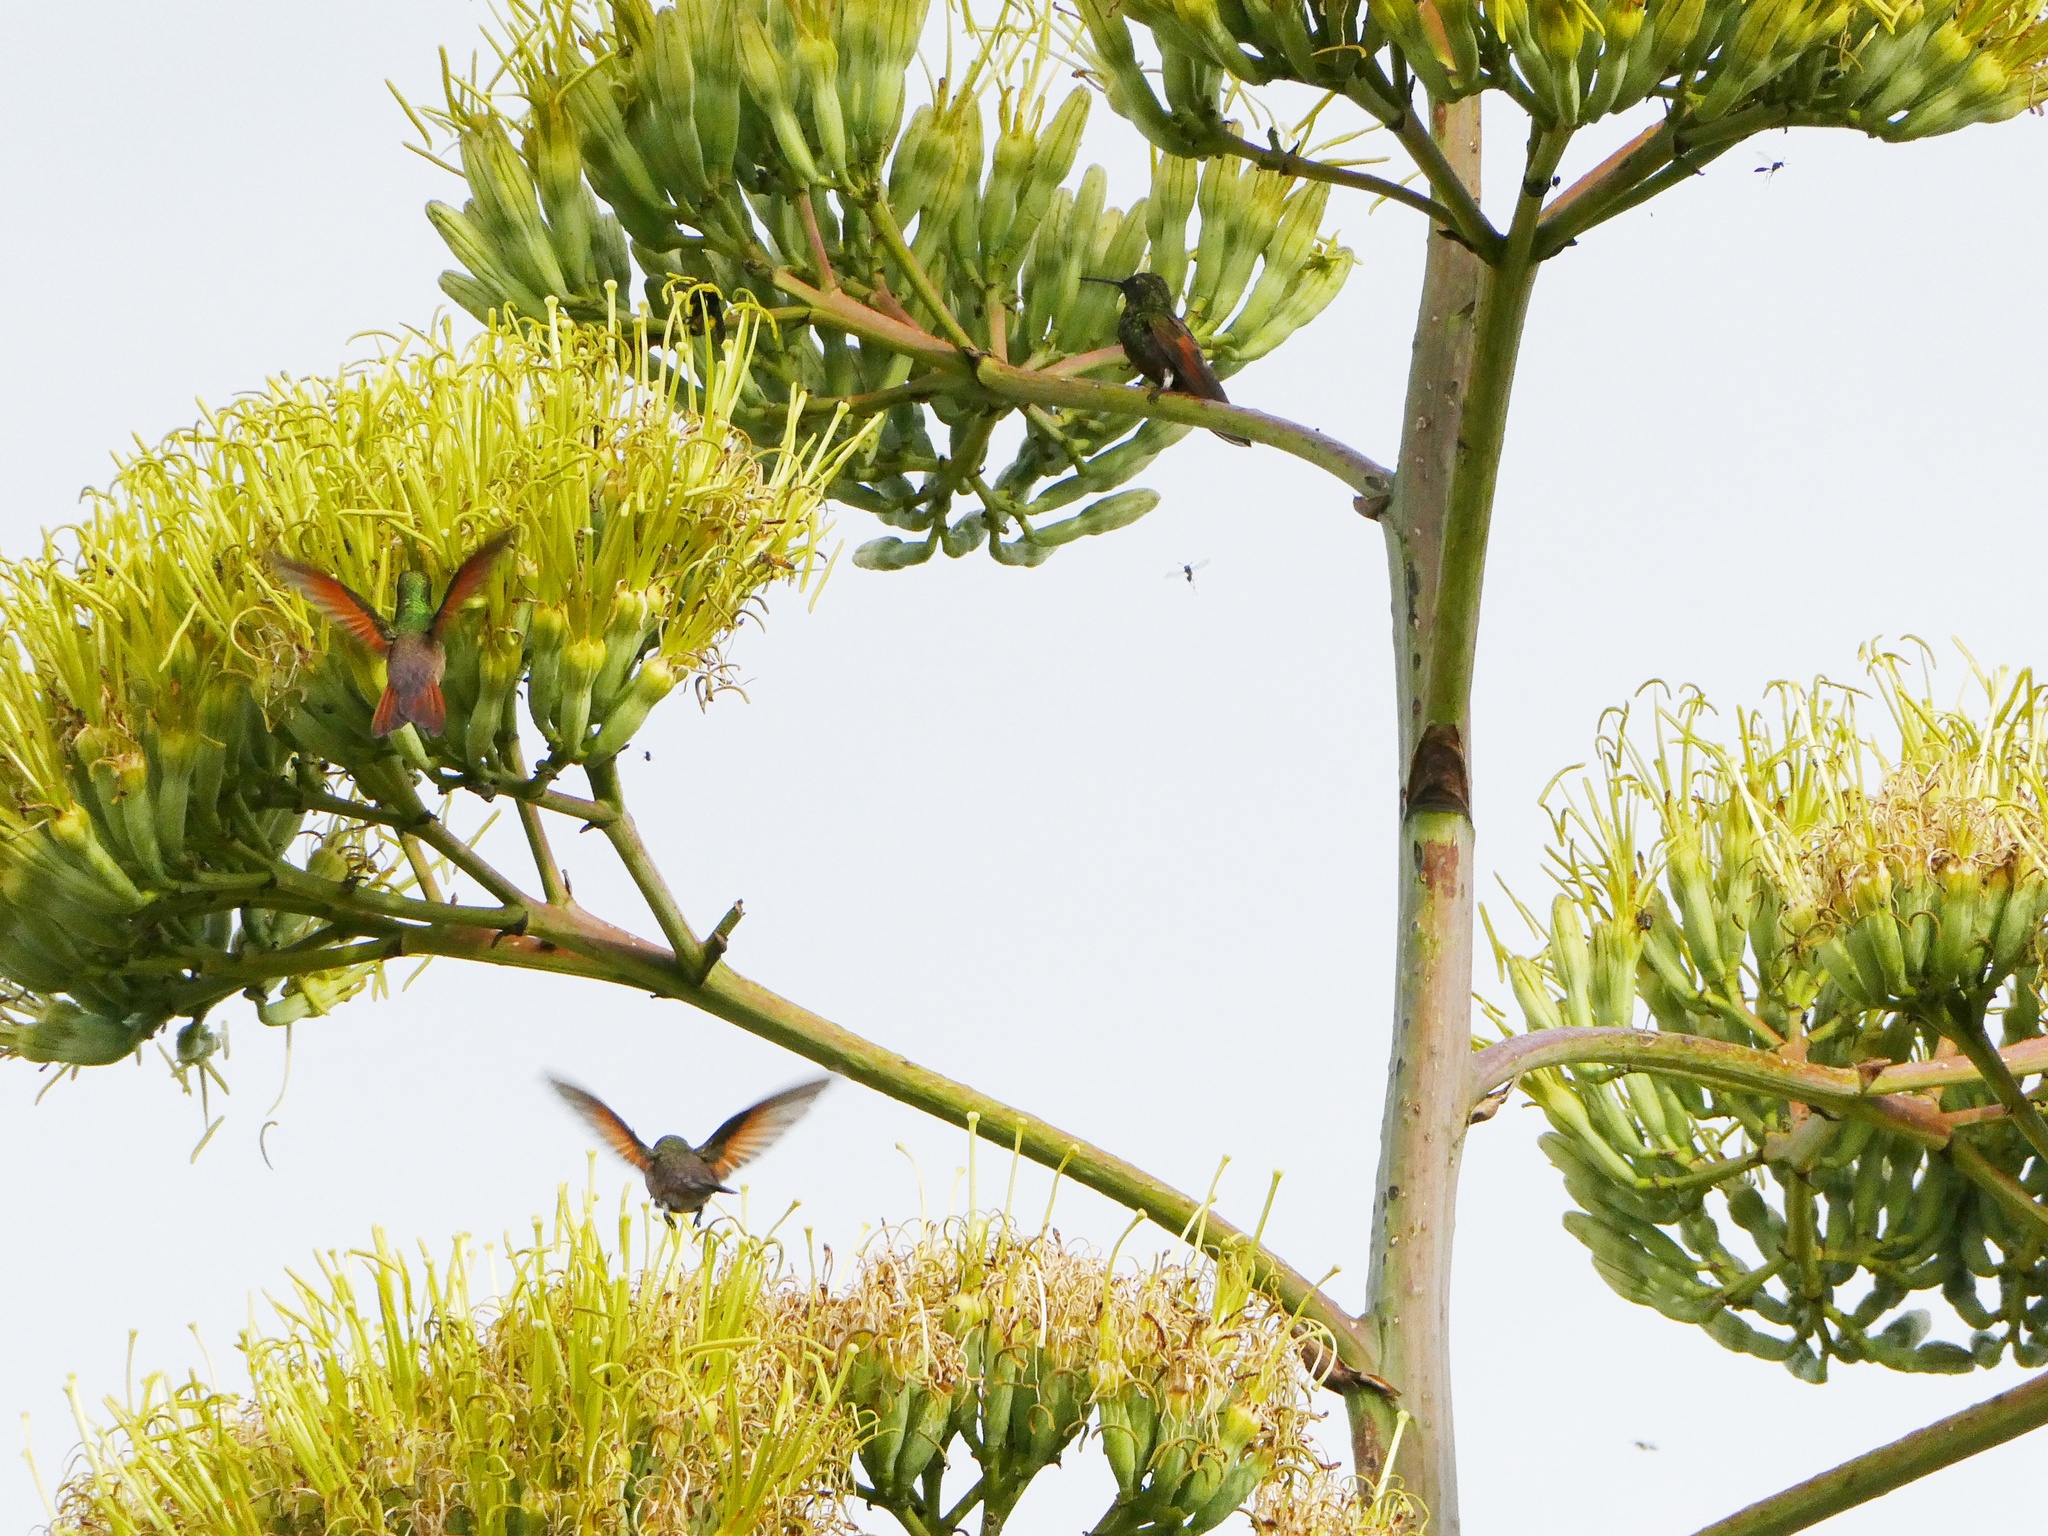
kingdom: Animalia
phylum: Chordata
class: Aves
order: Apodiformes
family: Trochilidae
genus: Saucerottia
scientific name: Saucerottia beryllina
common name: Berylline hummingbird
